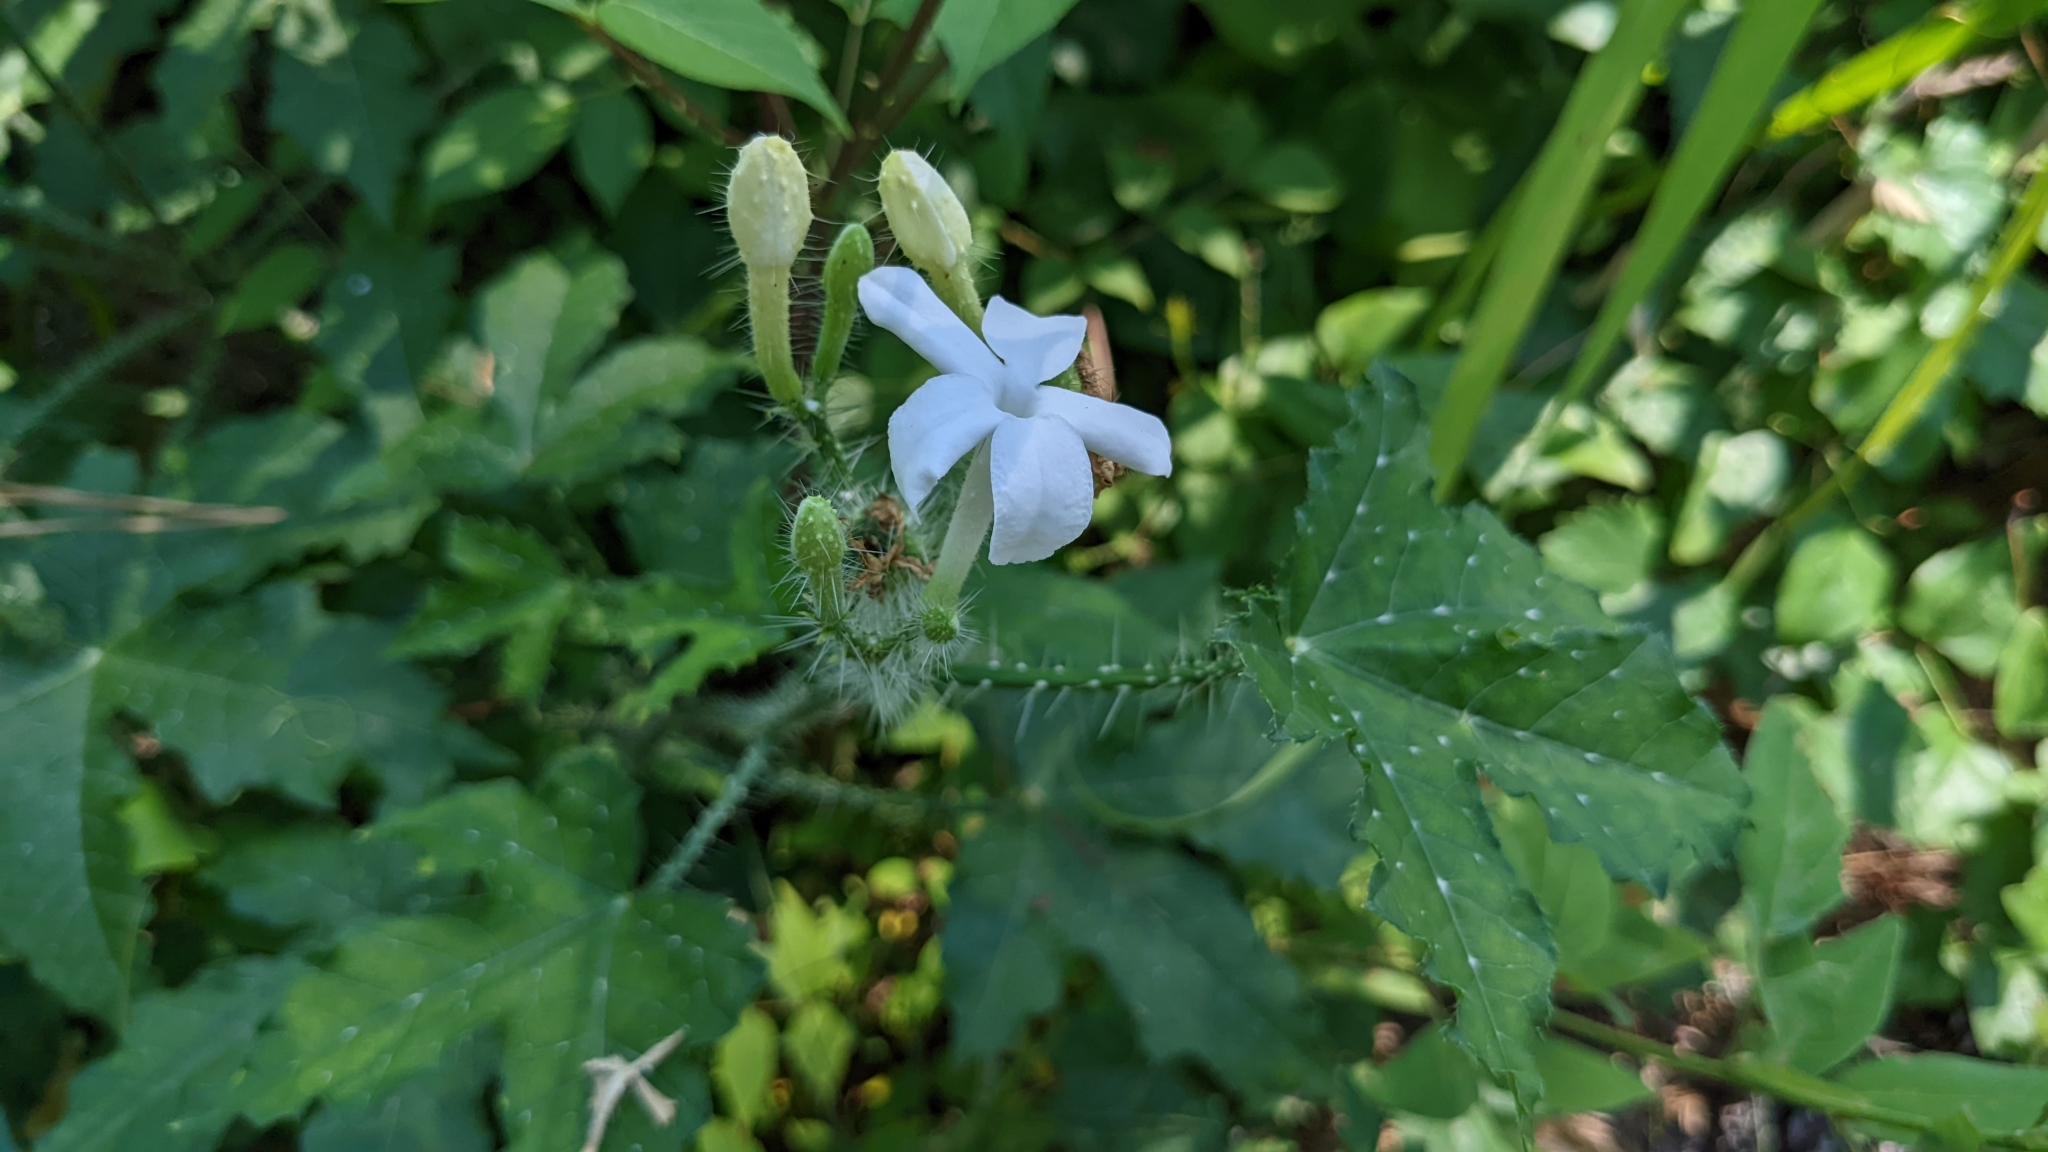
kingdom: Plantae
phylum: Tracheophyta
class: Magnoliopsida
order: Malpighiales
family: Euphorbiaceae
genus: Cnidoscolus
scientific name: Cnidoscolus texanus
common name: Texas bull-nettle
